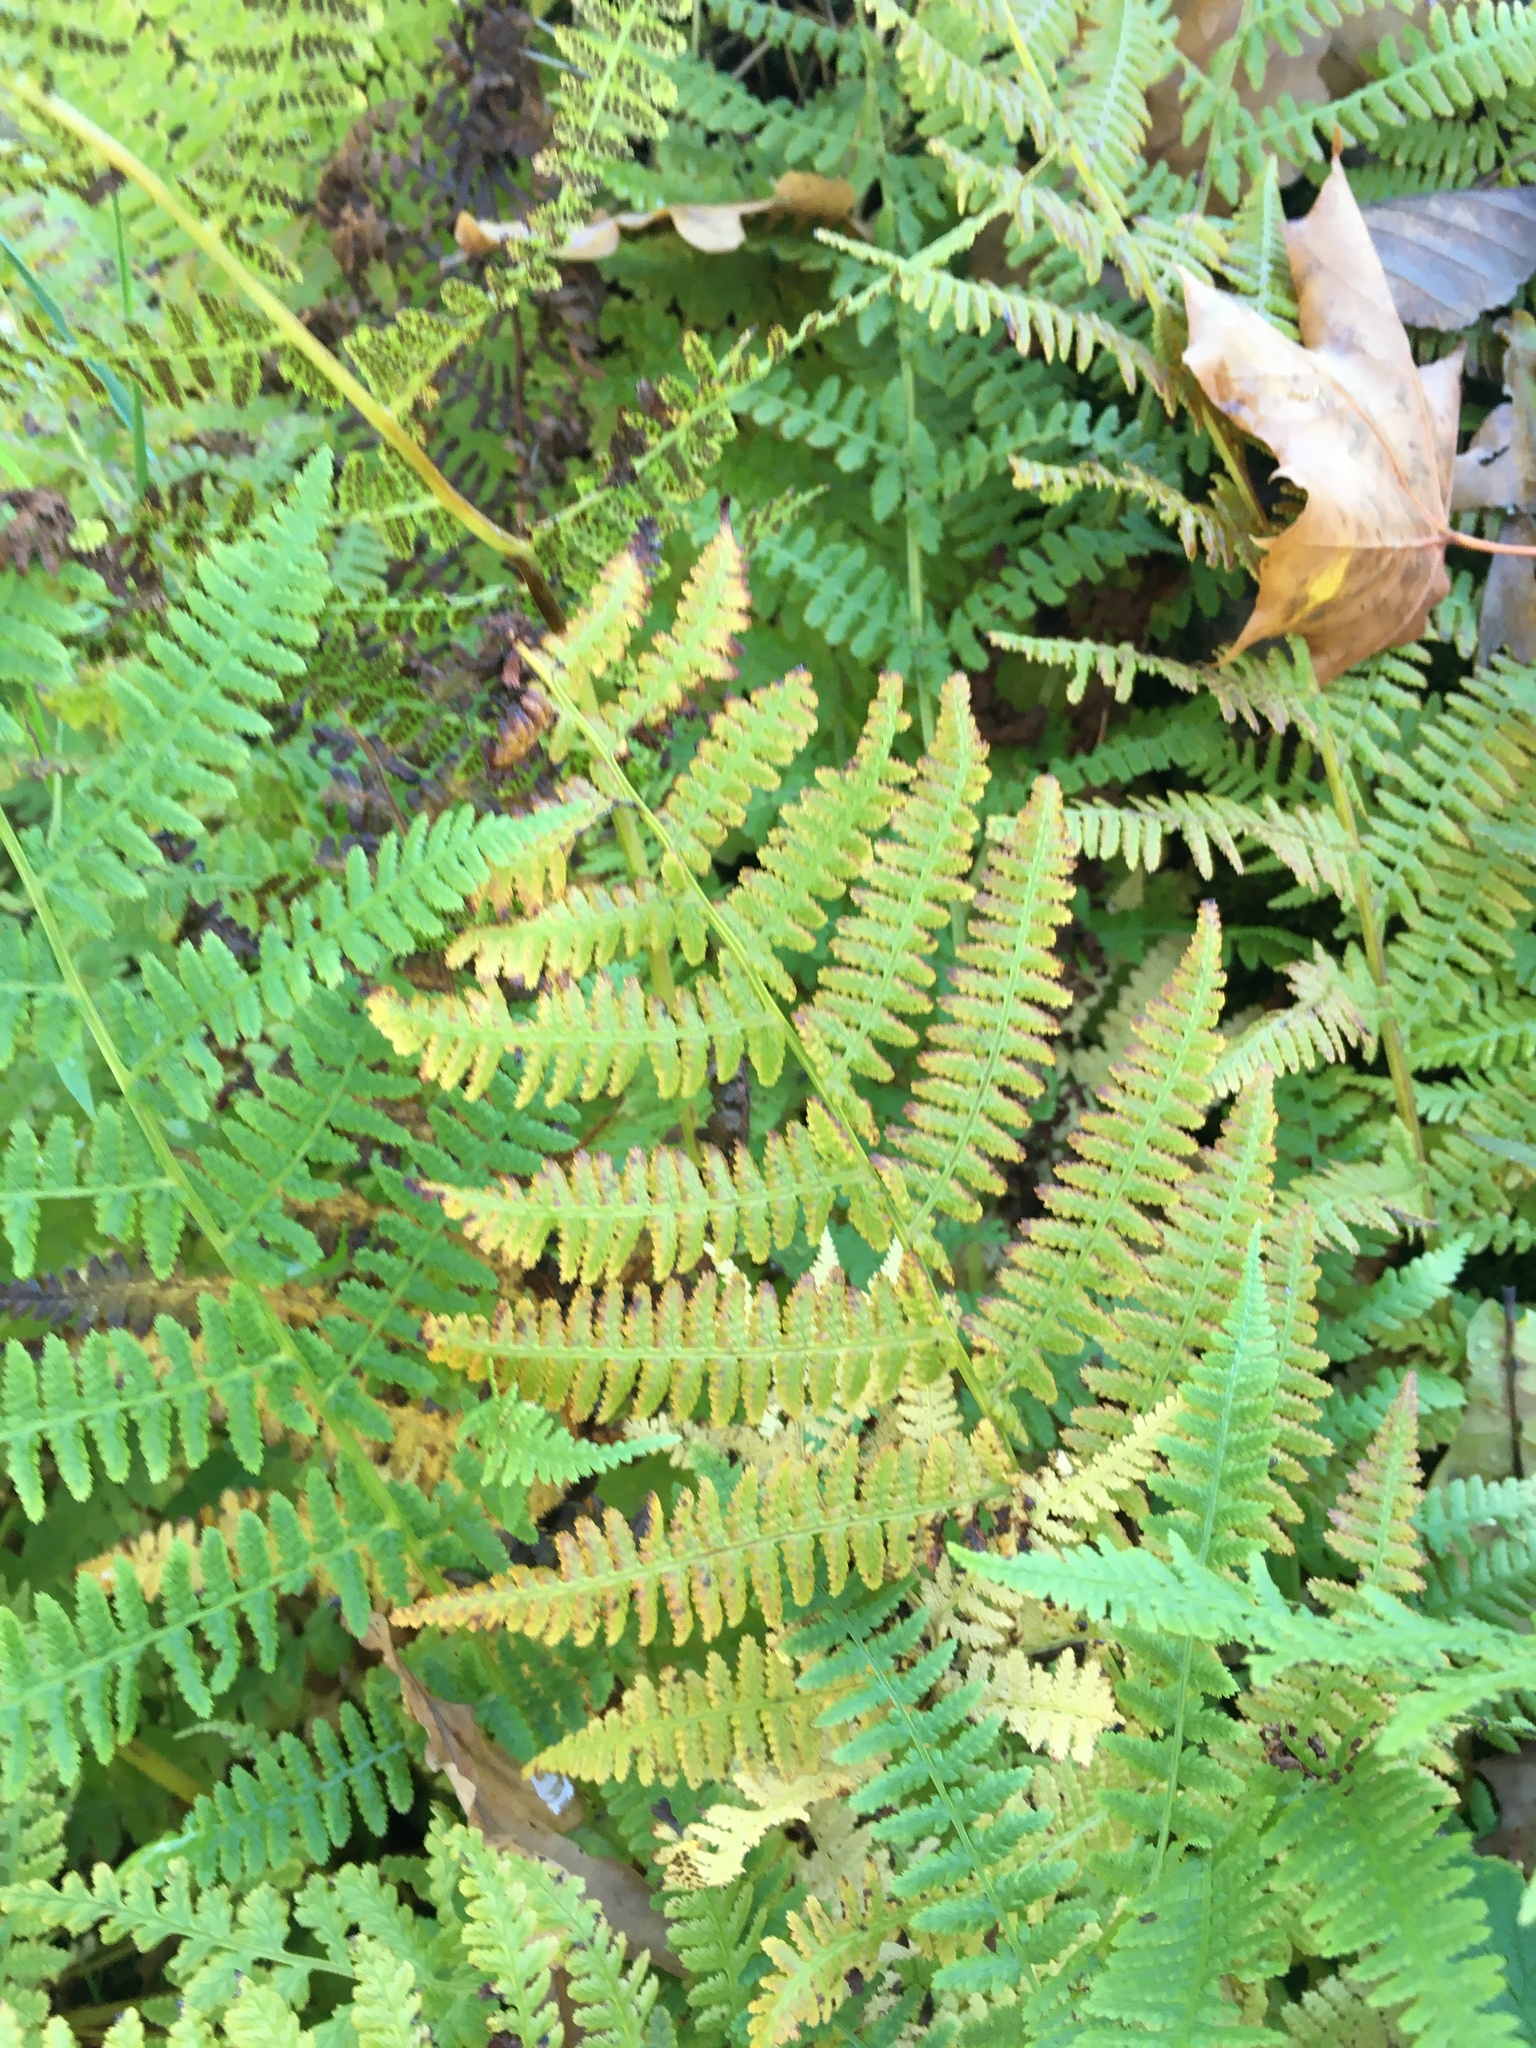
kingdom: Plantae
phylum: Tracheophyta
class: Polypodiopsida
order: Polypodiales
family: Athyriaceae
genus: Athyrium
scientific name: Athyrium filix-femina
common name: Lady fern
